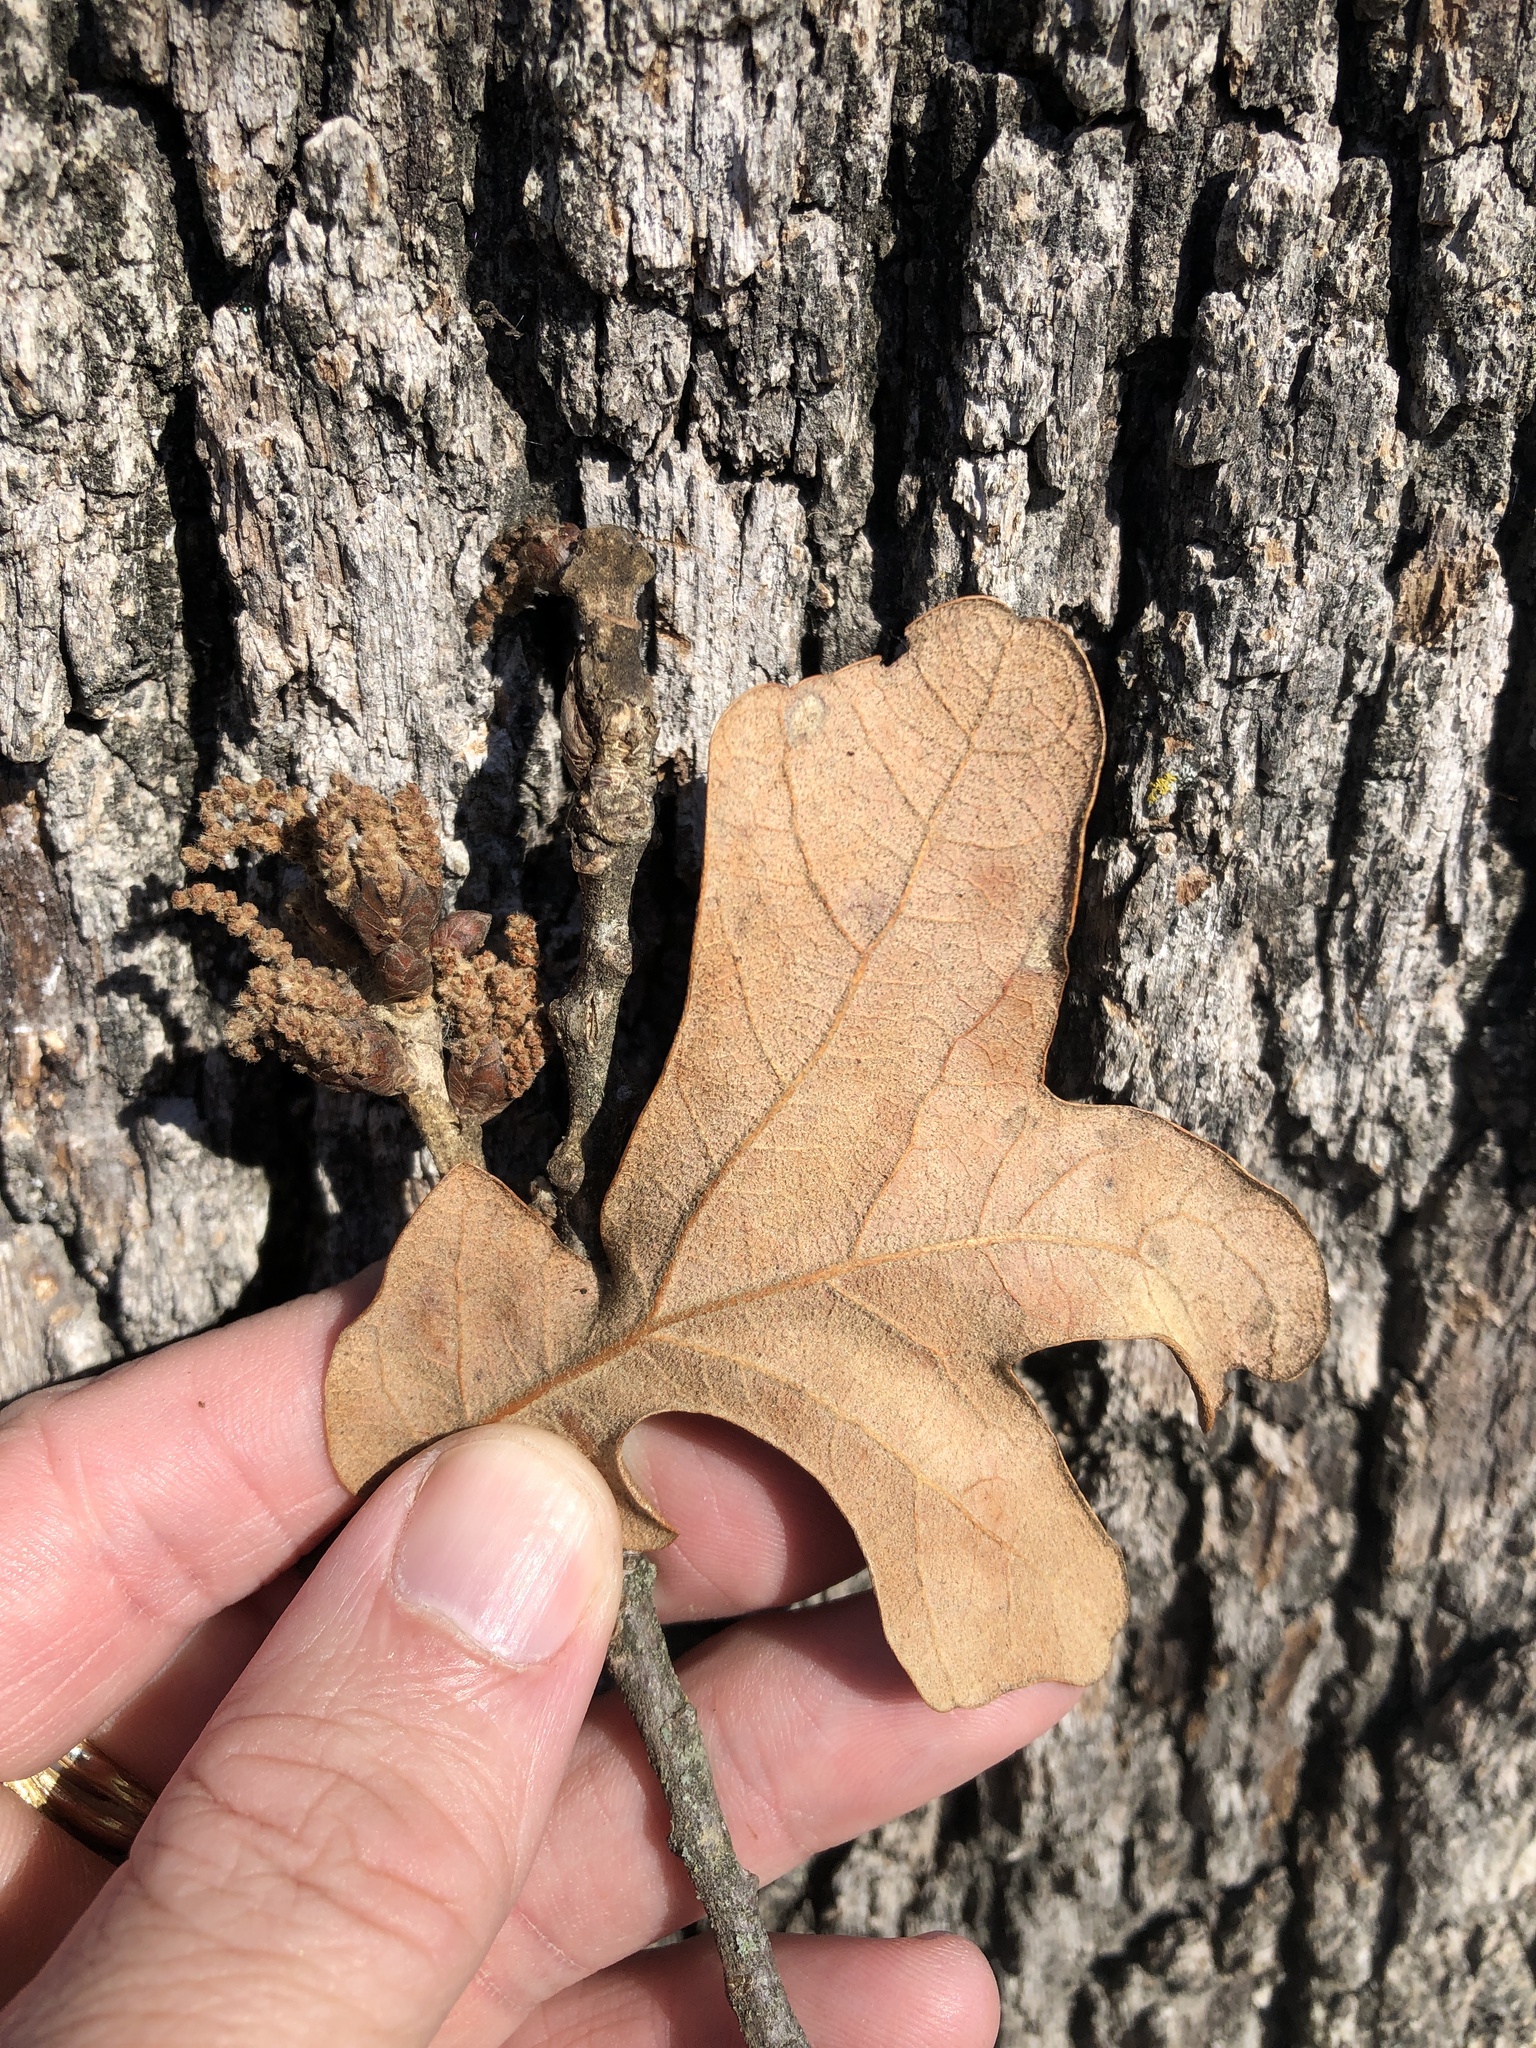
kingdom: Plantae
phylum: Tracheophyta
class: Magnoliopsida
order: Fagales
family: Fagaceae
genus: Quercus
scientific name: Quercus stellata
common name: Post oak
